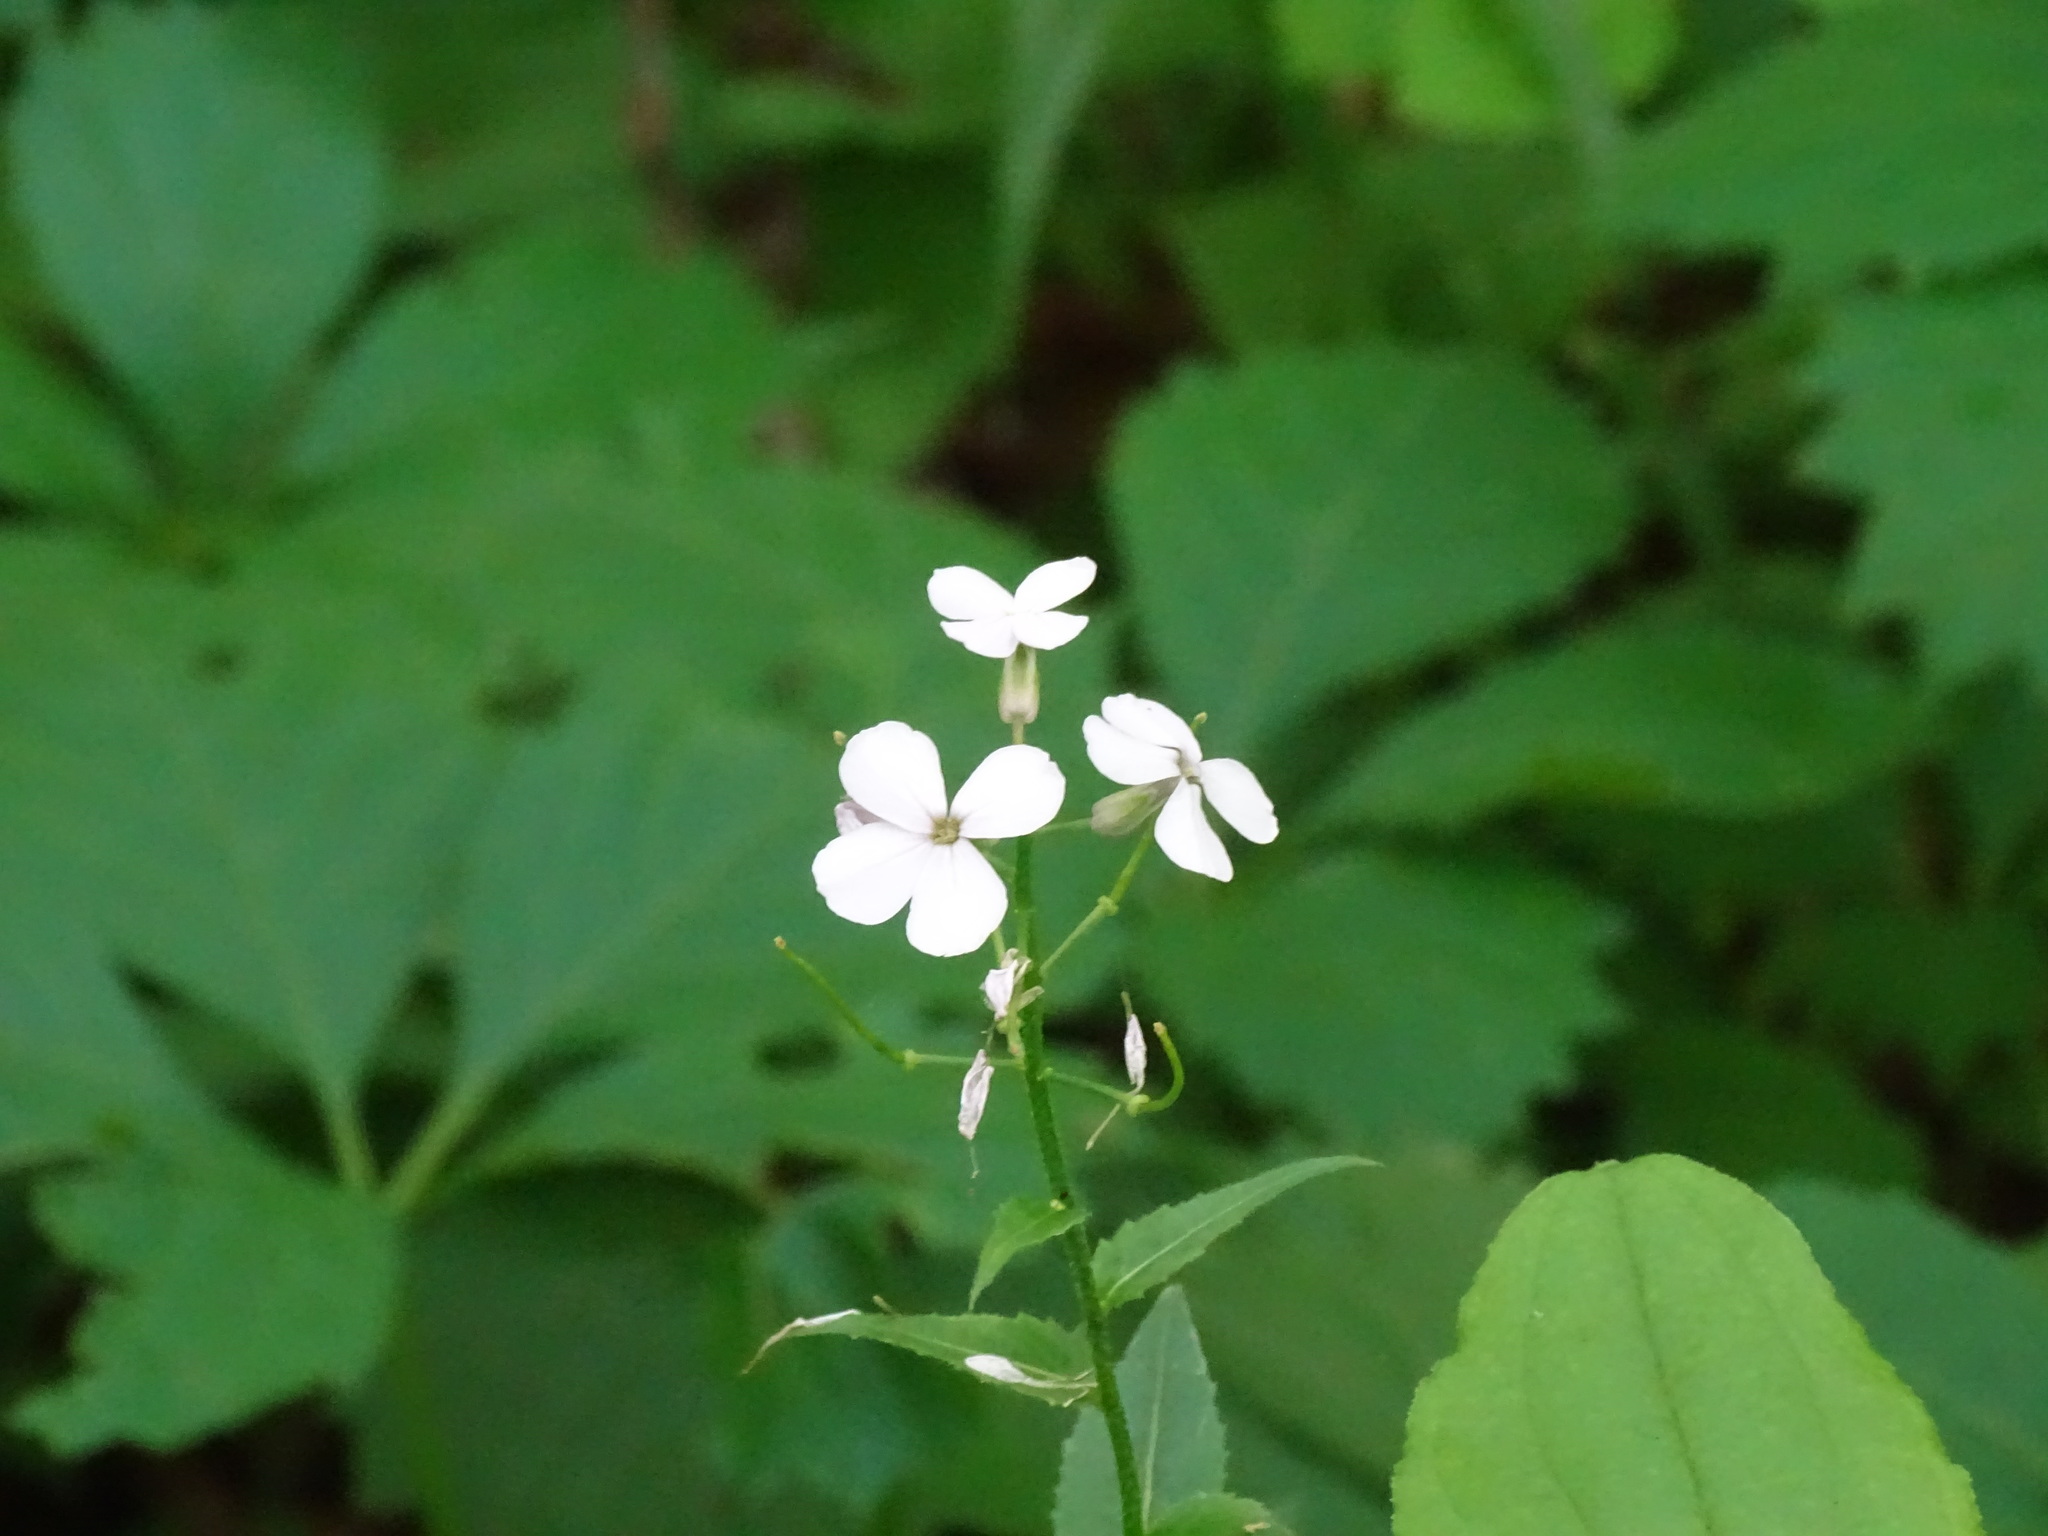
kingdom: Plantae
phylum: Tracheophyta
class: Magnoliopsida
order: Brassicales
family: Brassicaceae
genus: Hesperis
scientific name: Hesperis matronalis
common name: Dame's-violet
